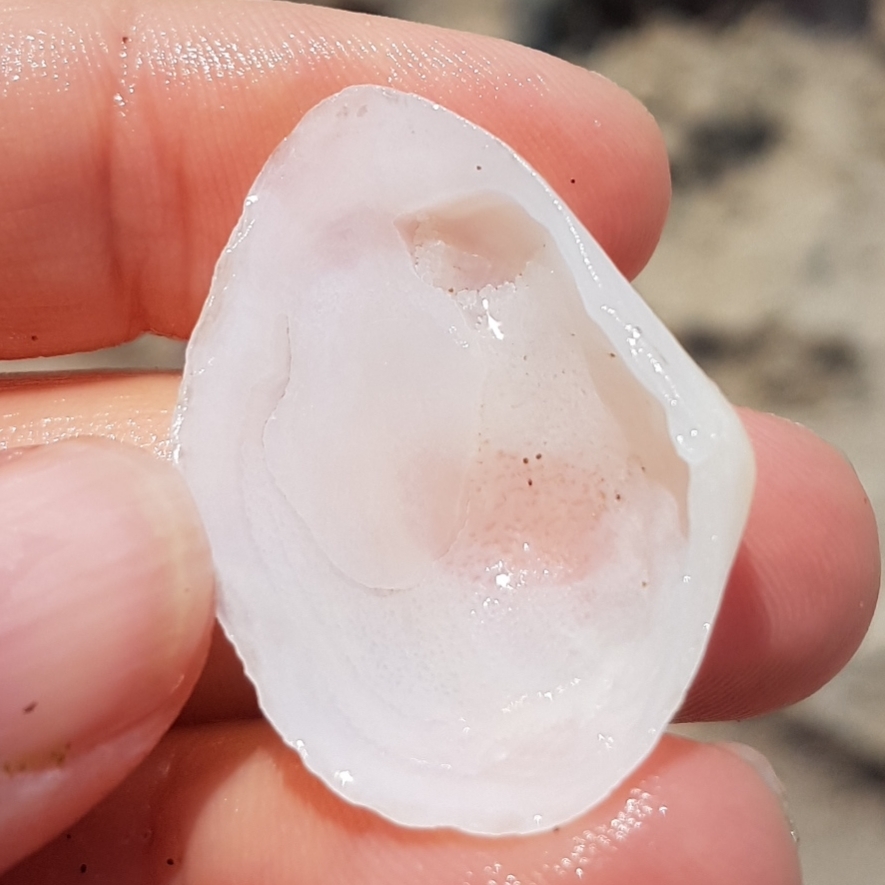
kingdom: Animalia
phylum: Mollusca
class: Bivalvia
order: Cardiida
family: Tellinidae
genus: Gastrana
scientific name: Gastrana fragilis
